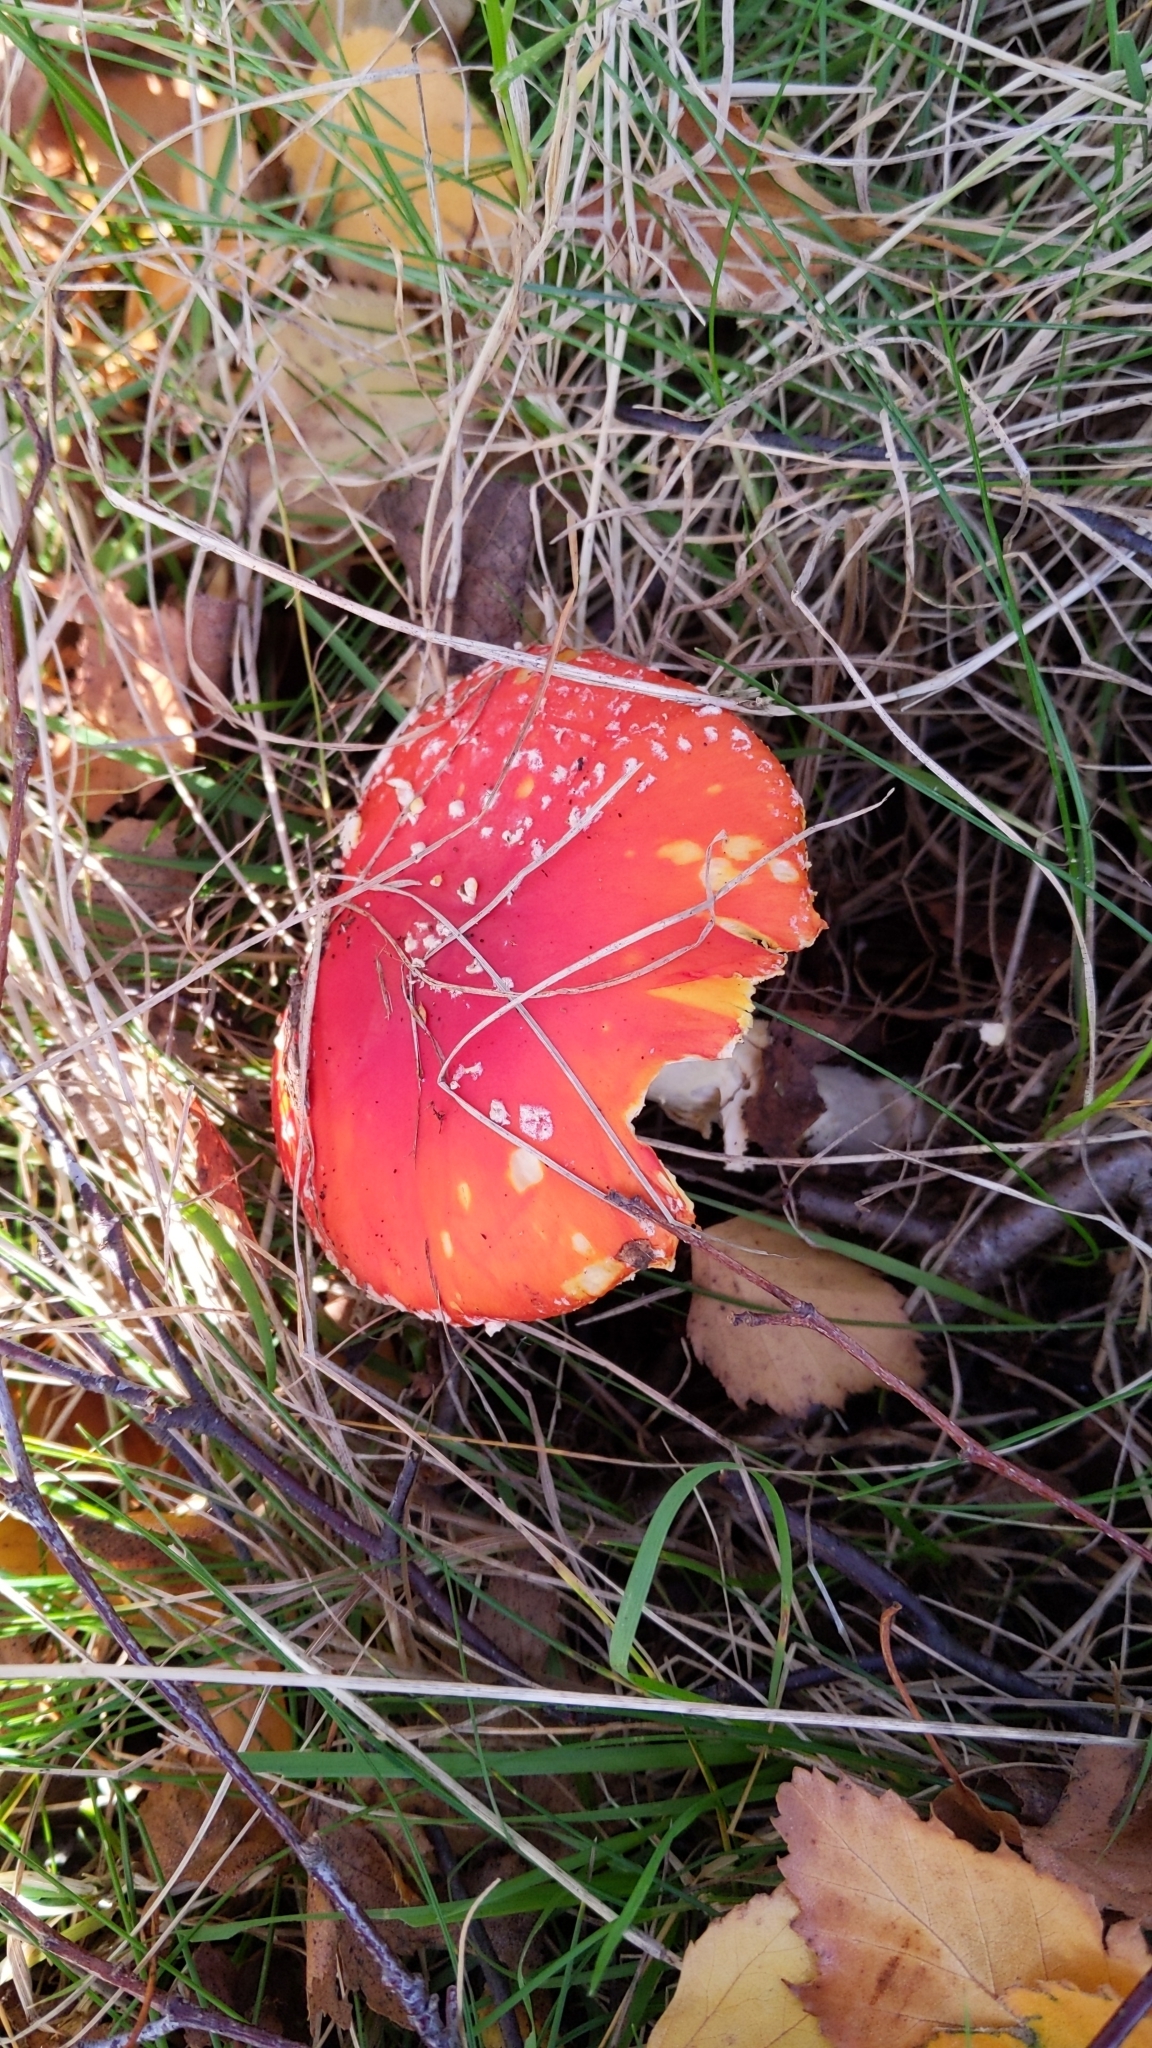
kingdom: Fungi
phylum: Basidiomycota
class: Agaricomycetes
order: Agaricales
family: Amanitaceae
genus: Amanita
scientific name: Amanita muscaria
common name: Fly agaric
